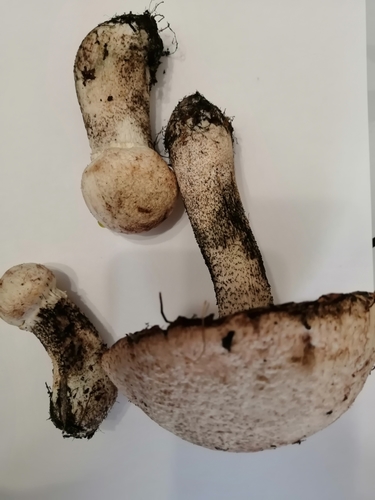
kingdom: Fungi
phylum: Basidiomycota
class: Agaricomycetes
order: Boletales
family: Boletaceae
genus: Leccinum
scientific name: Leccinum versipelle
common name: Orange birch bolete
